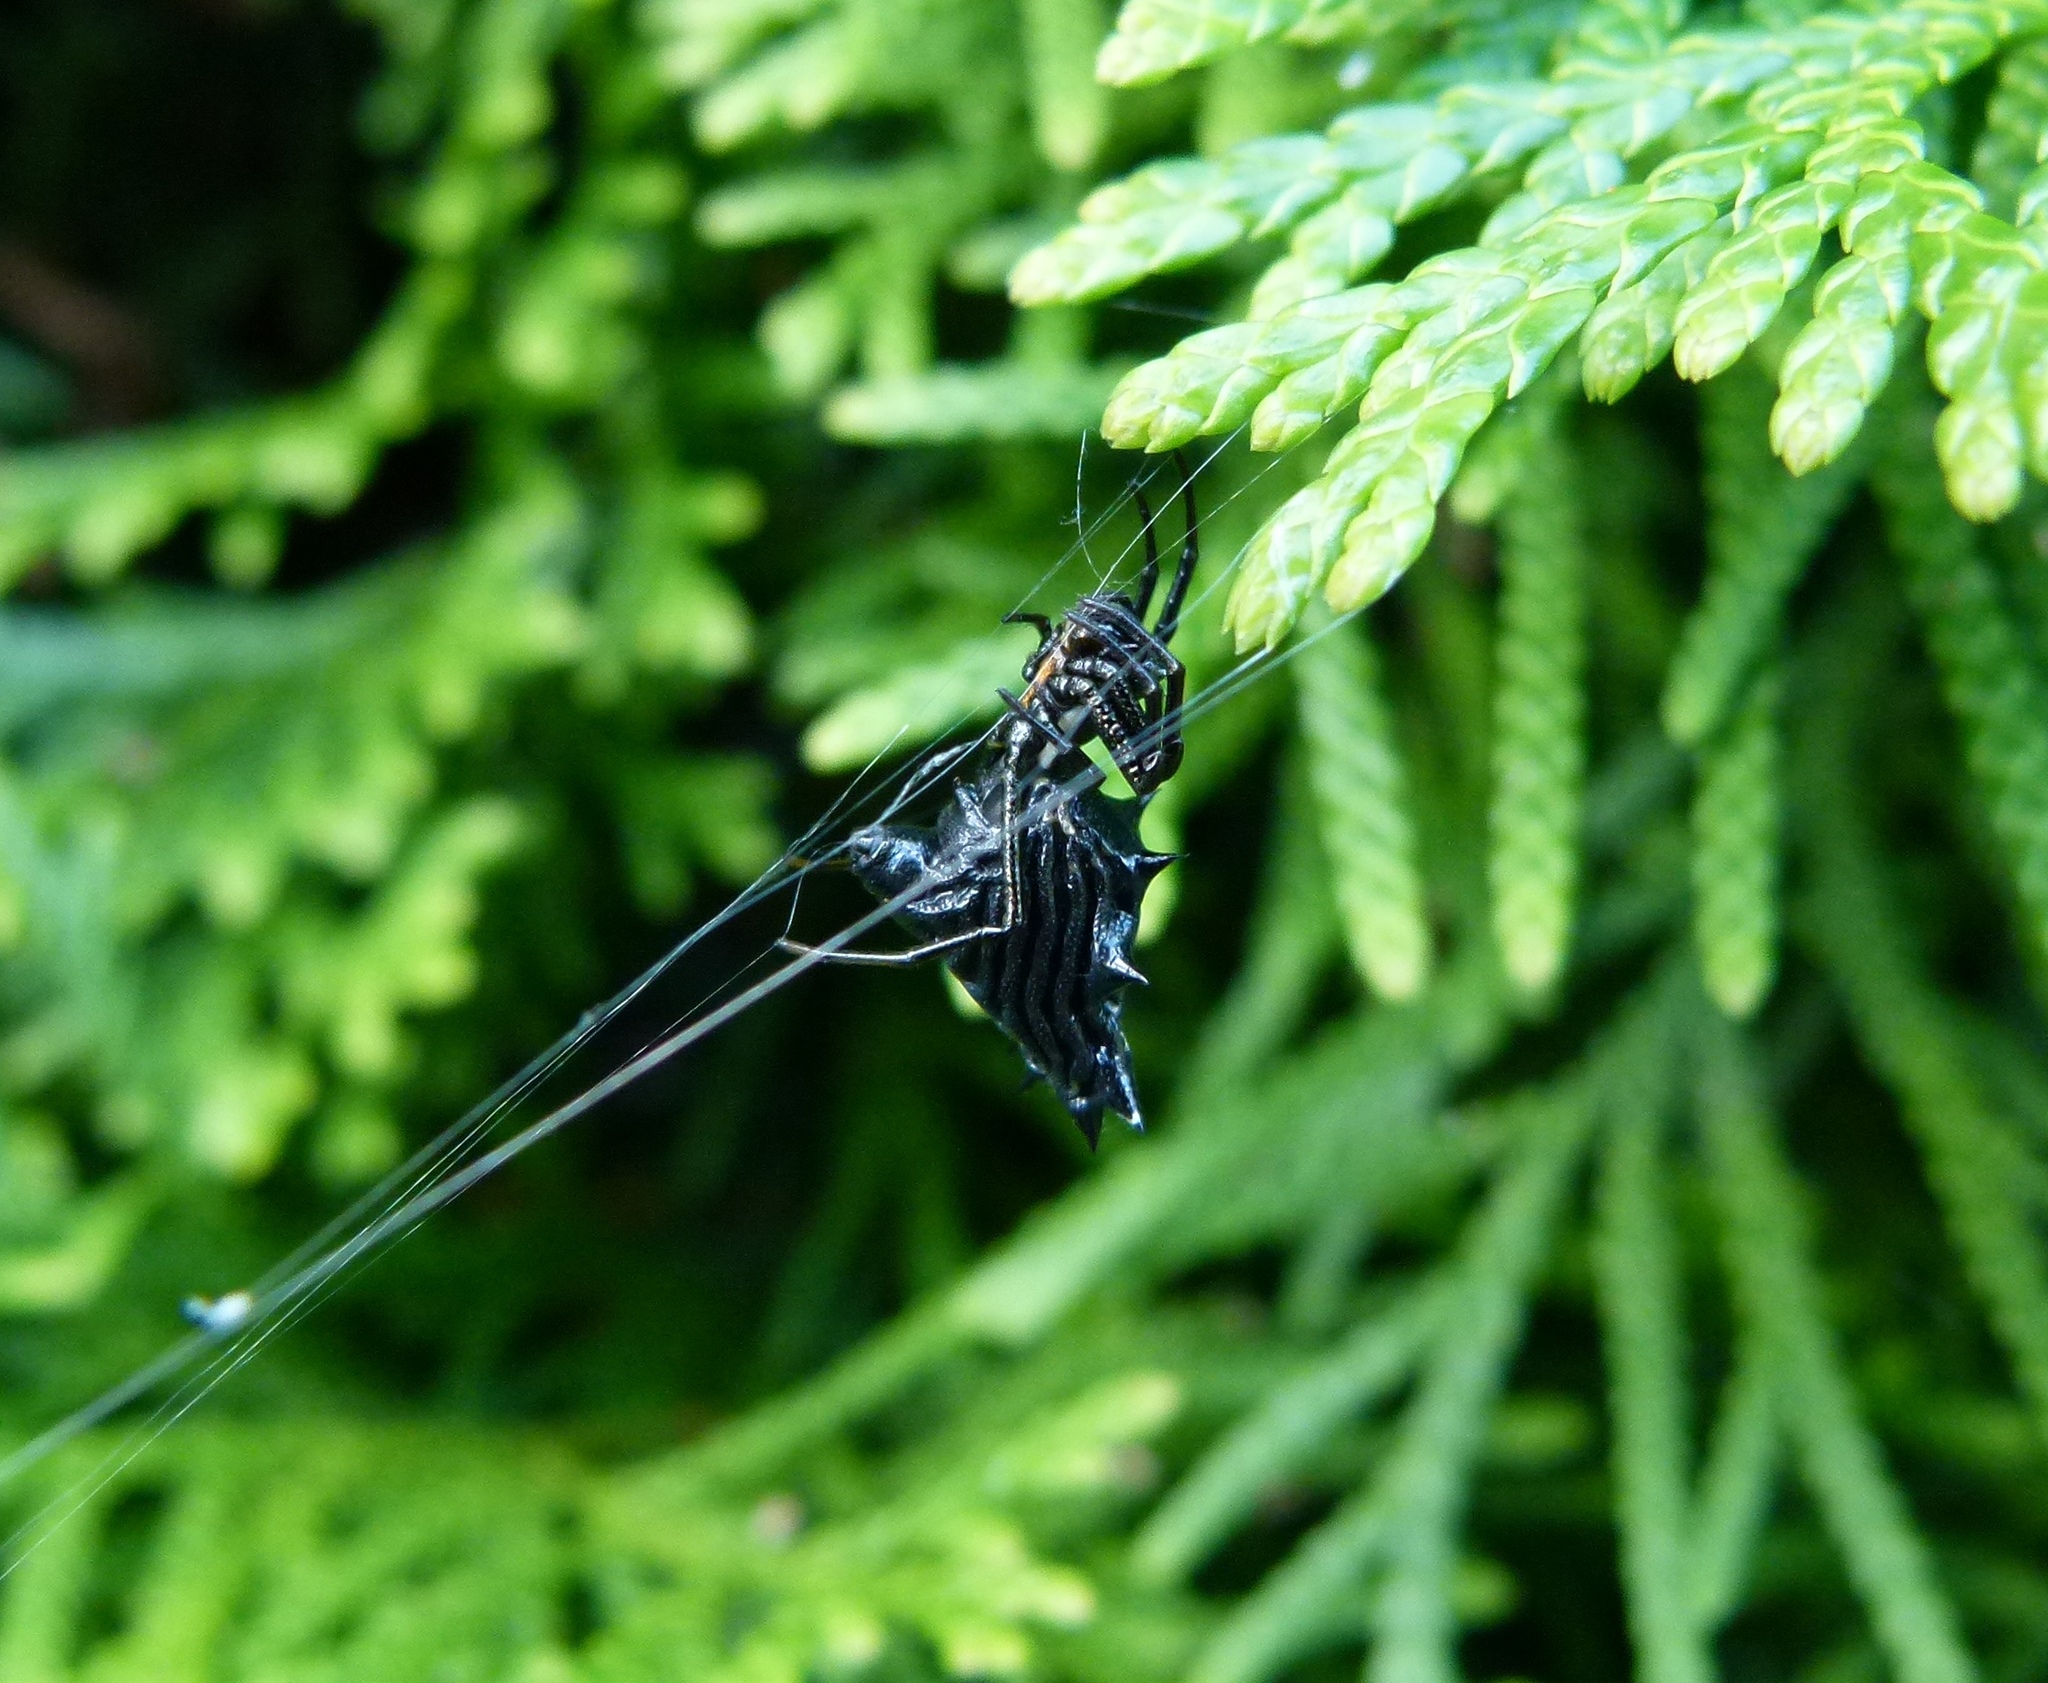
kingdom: Animalia
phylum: Arthropoda
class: Arachnida
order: Araneae
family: Araneidae
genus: Micrathena
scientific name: Micrathena gracilis
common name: Orb weavers
